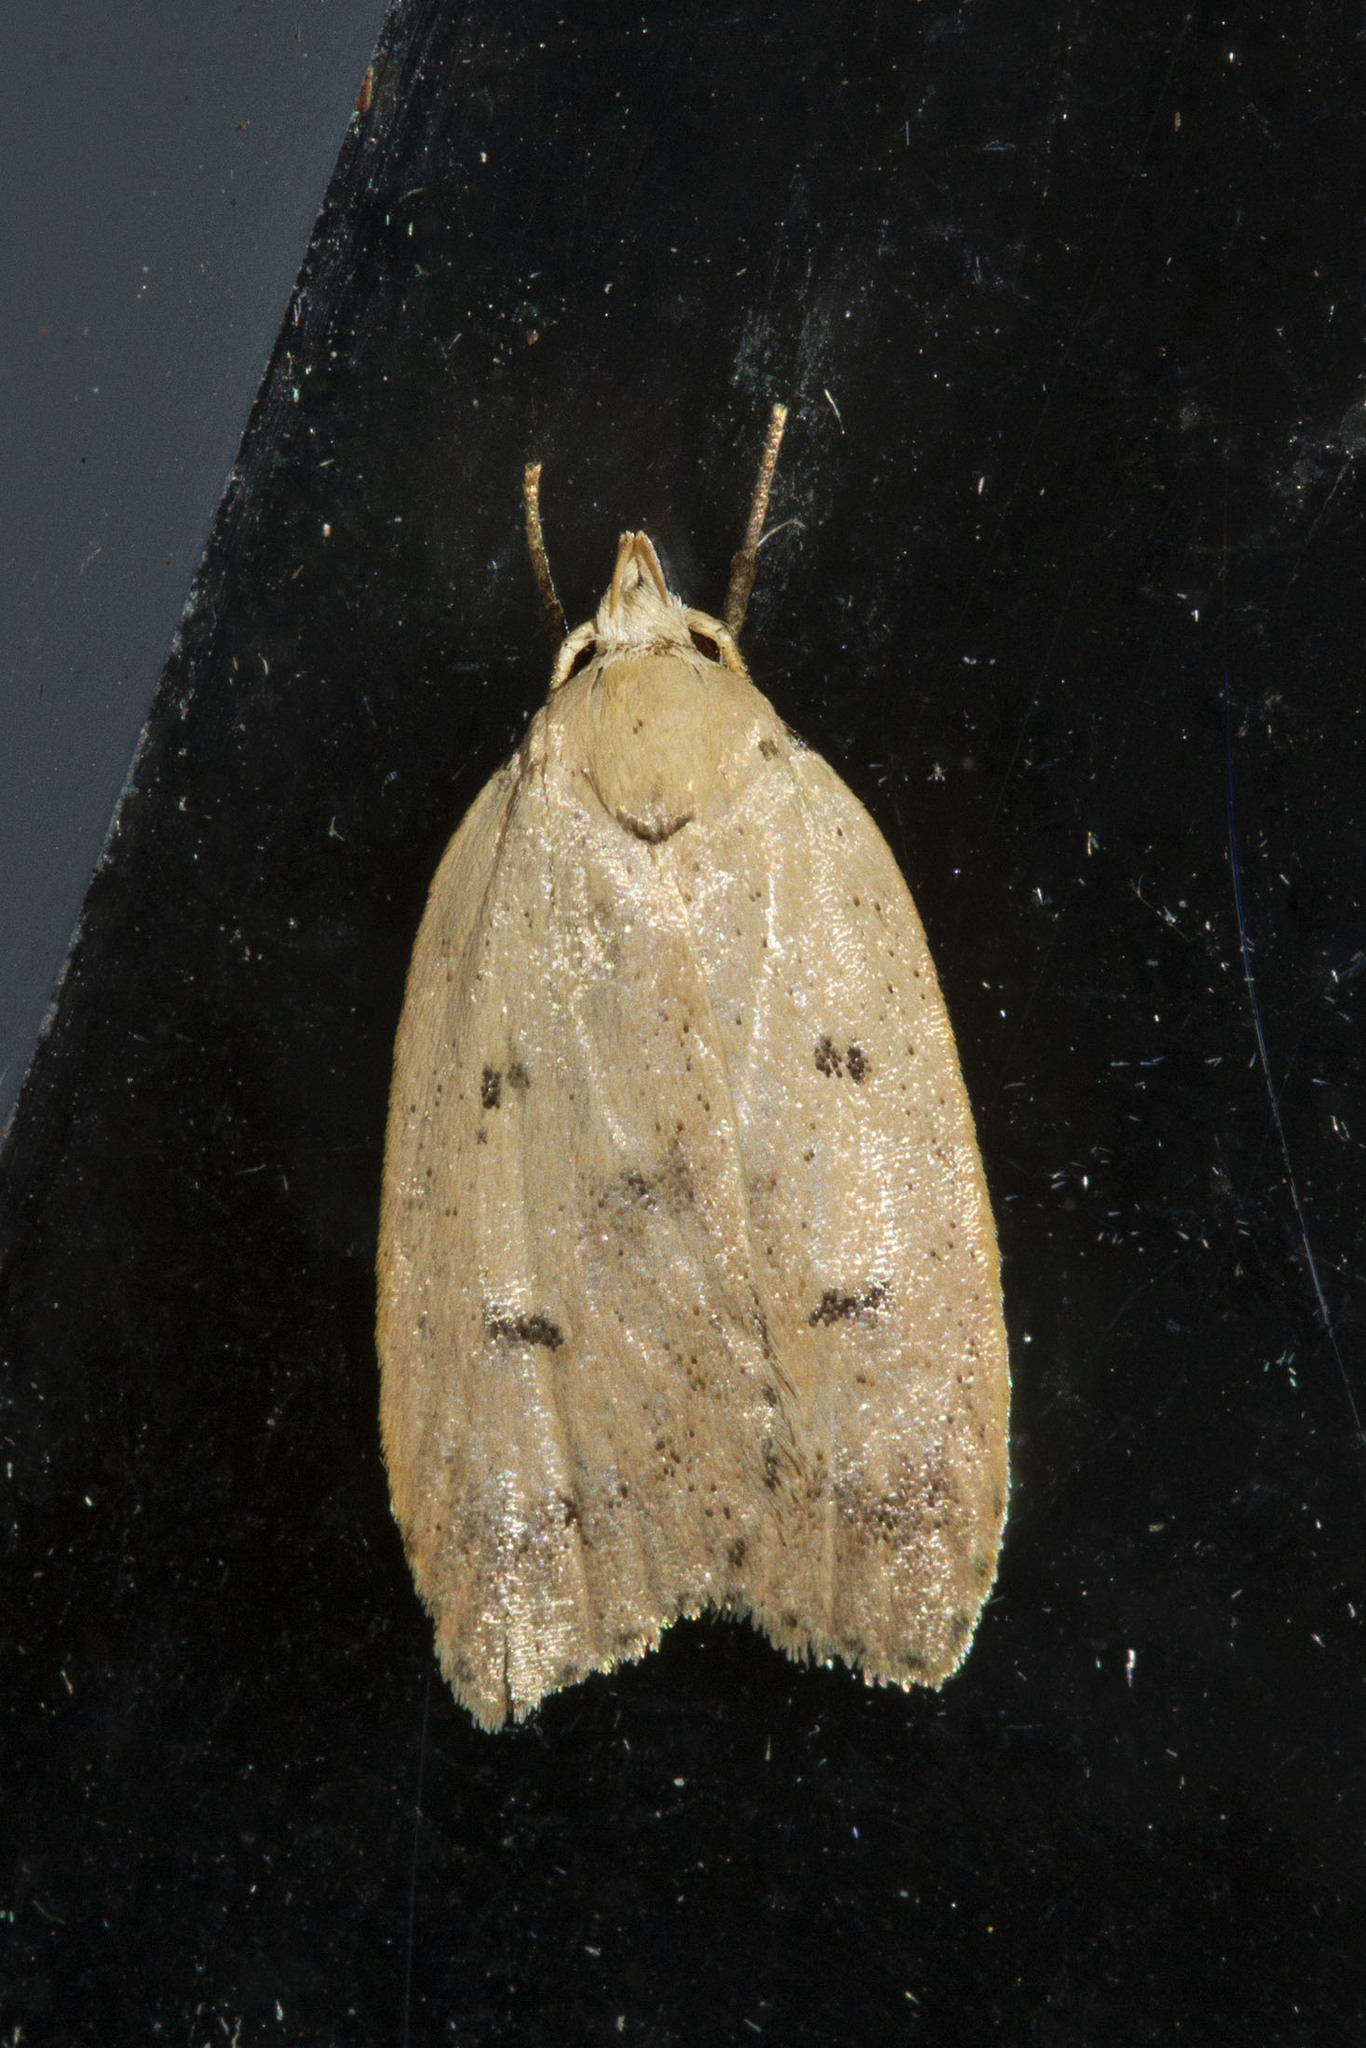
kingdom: Animalia
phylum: Arthropoda
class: Insecta
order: Lepidoptera
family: Peleopodidae
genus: Machimia
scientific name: Machimia tentoriferella
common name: Gold-striped leaftier moth
